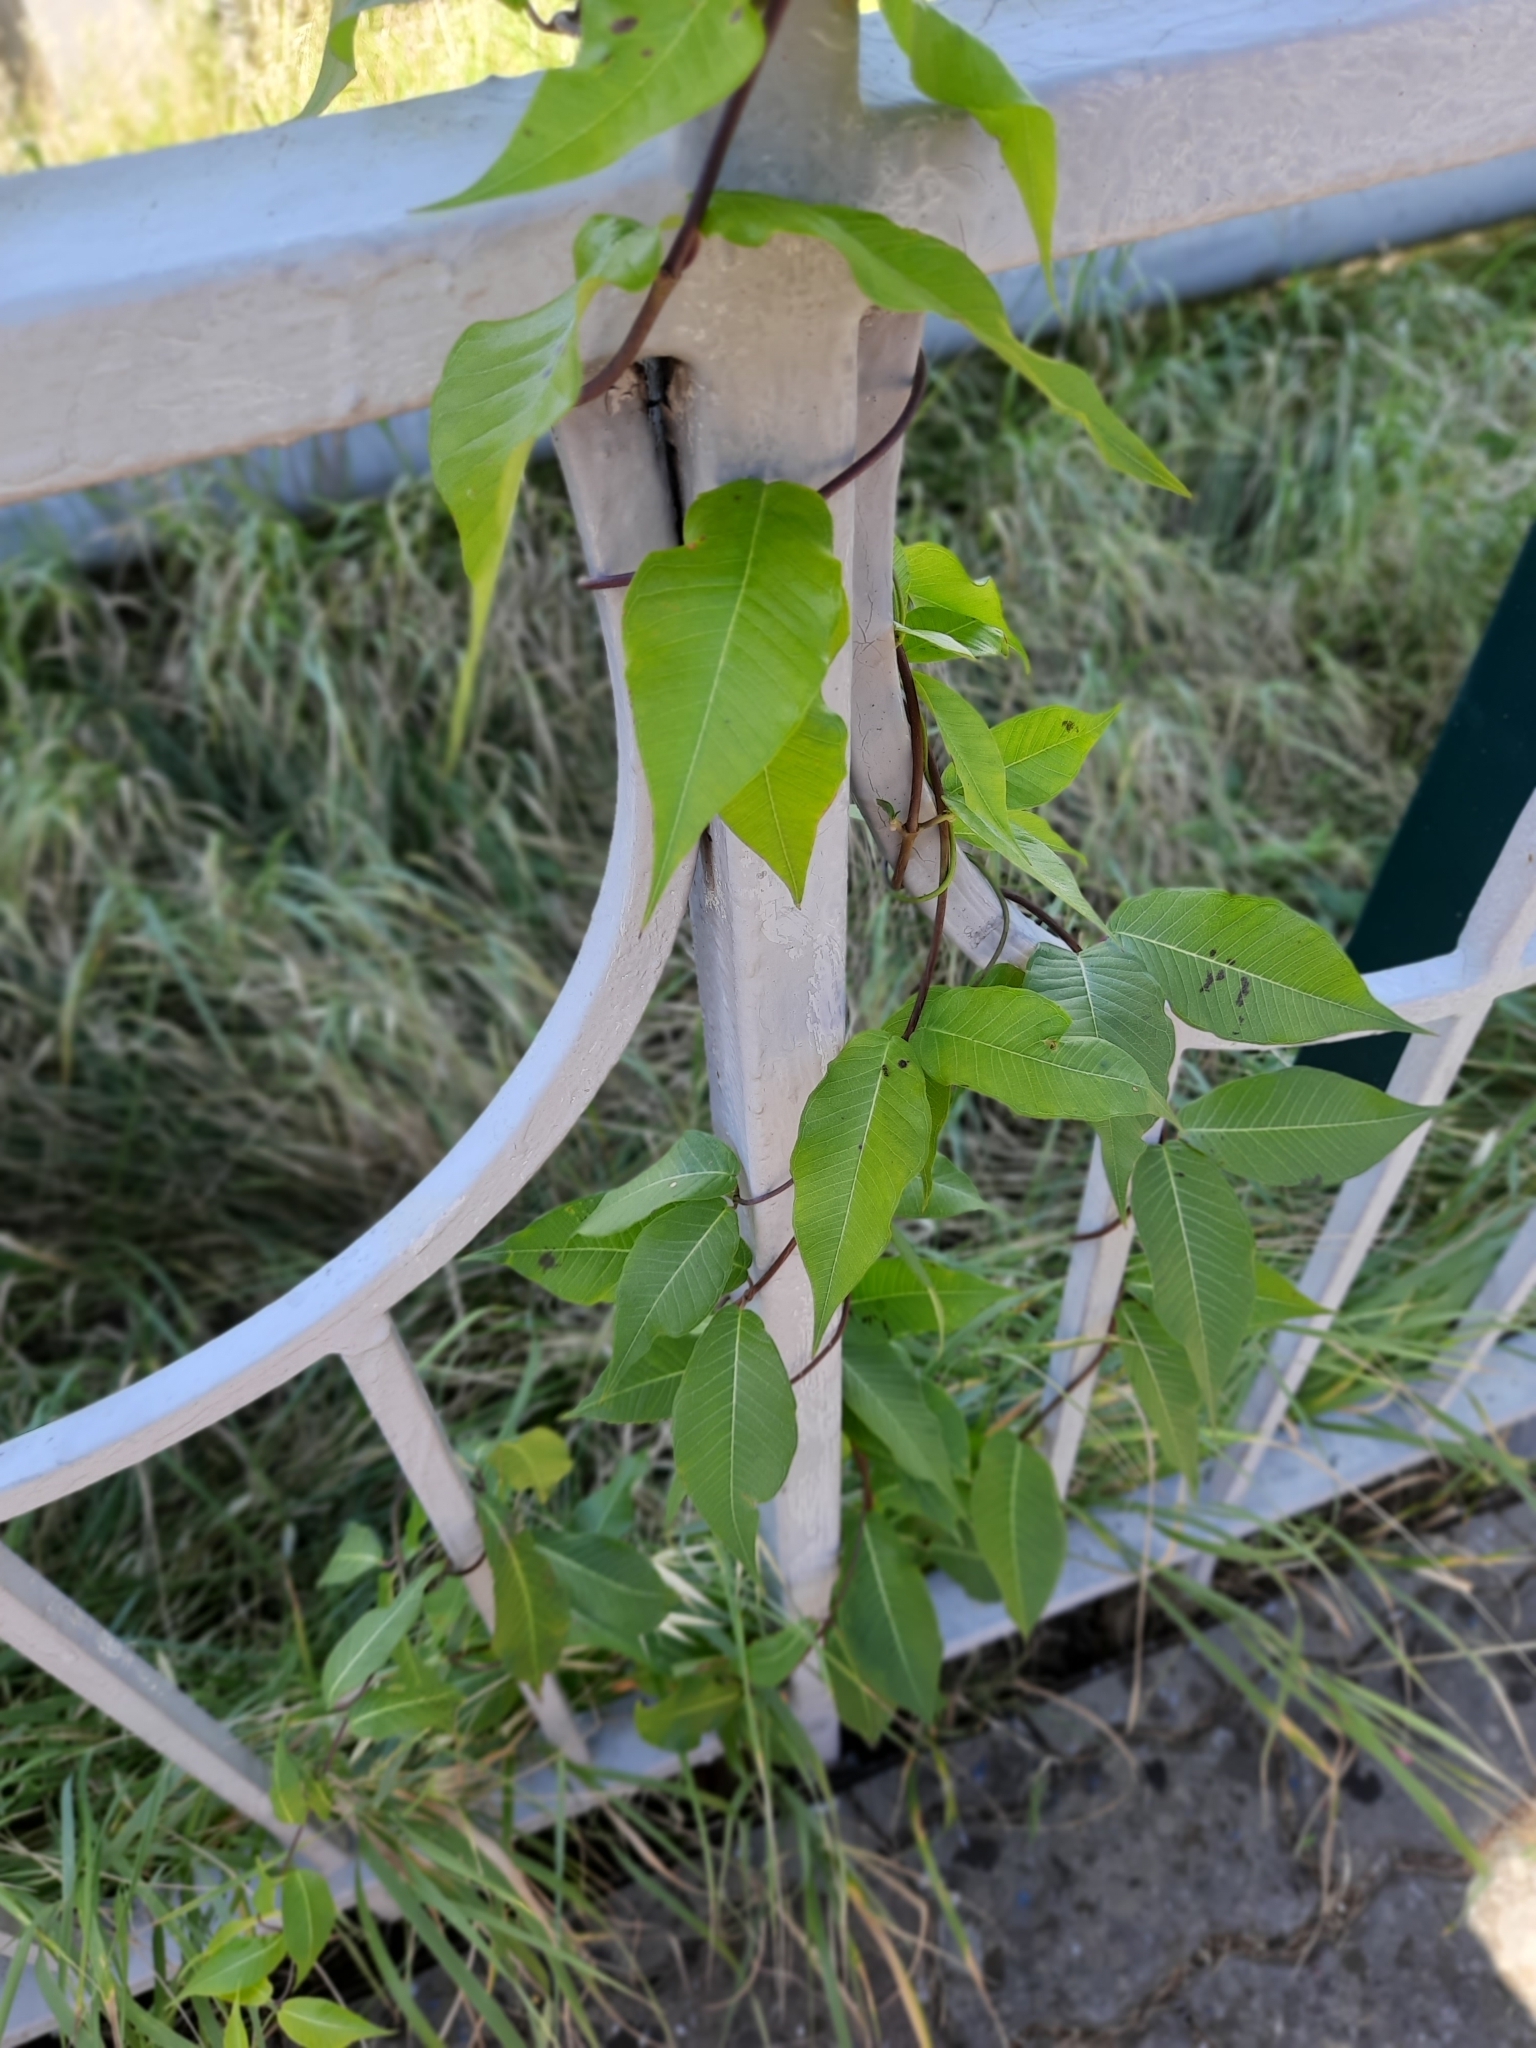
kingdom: Plantae
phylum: Tracheophyta
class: Magnoliopsida
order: Gentianales
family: Apocynaceae
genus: Periploca
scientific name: Periploca graeca
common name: Silkvine
